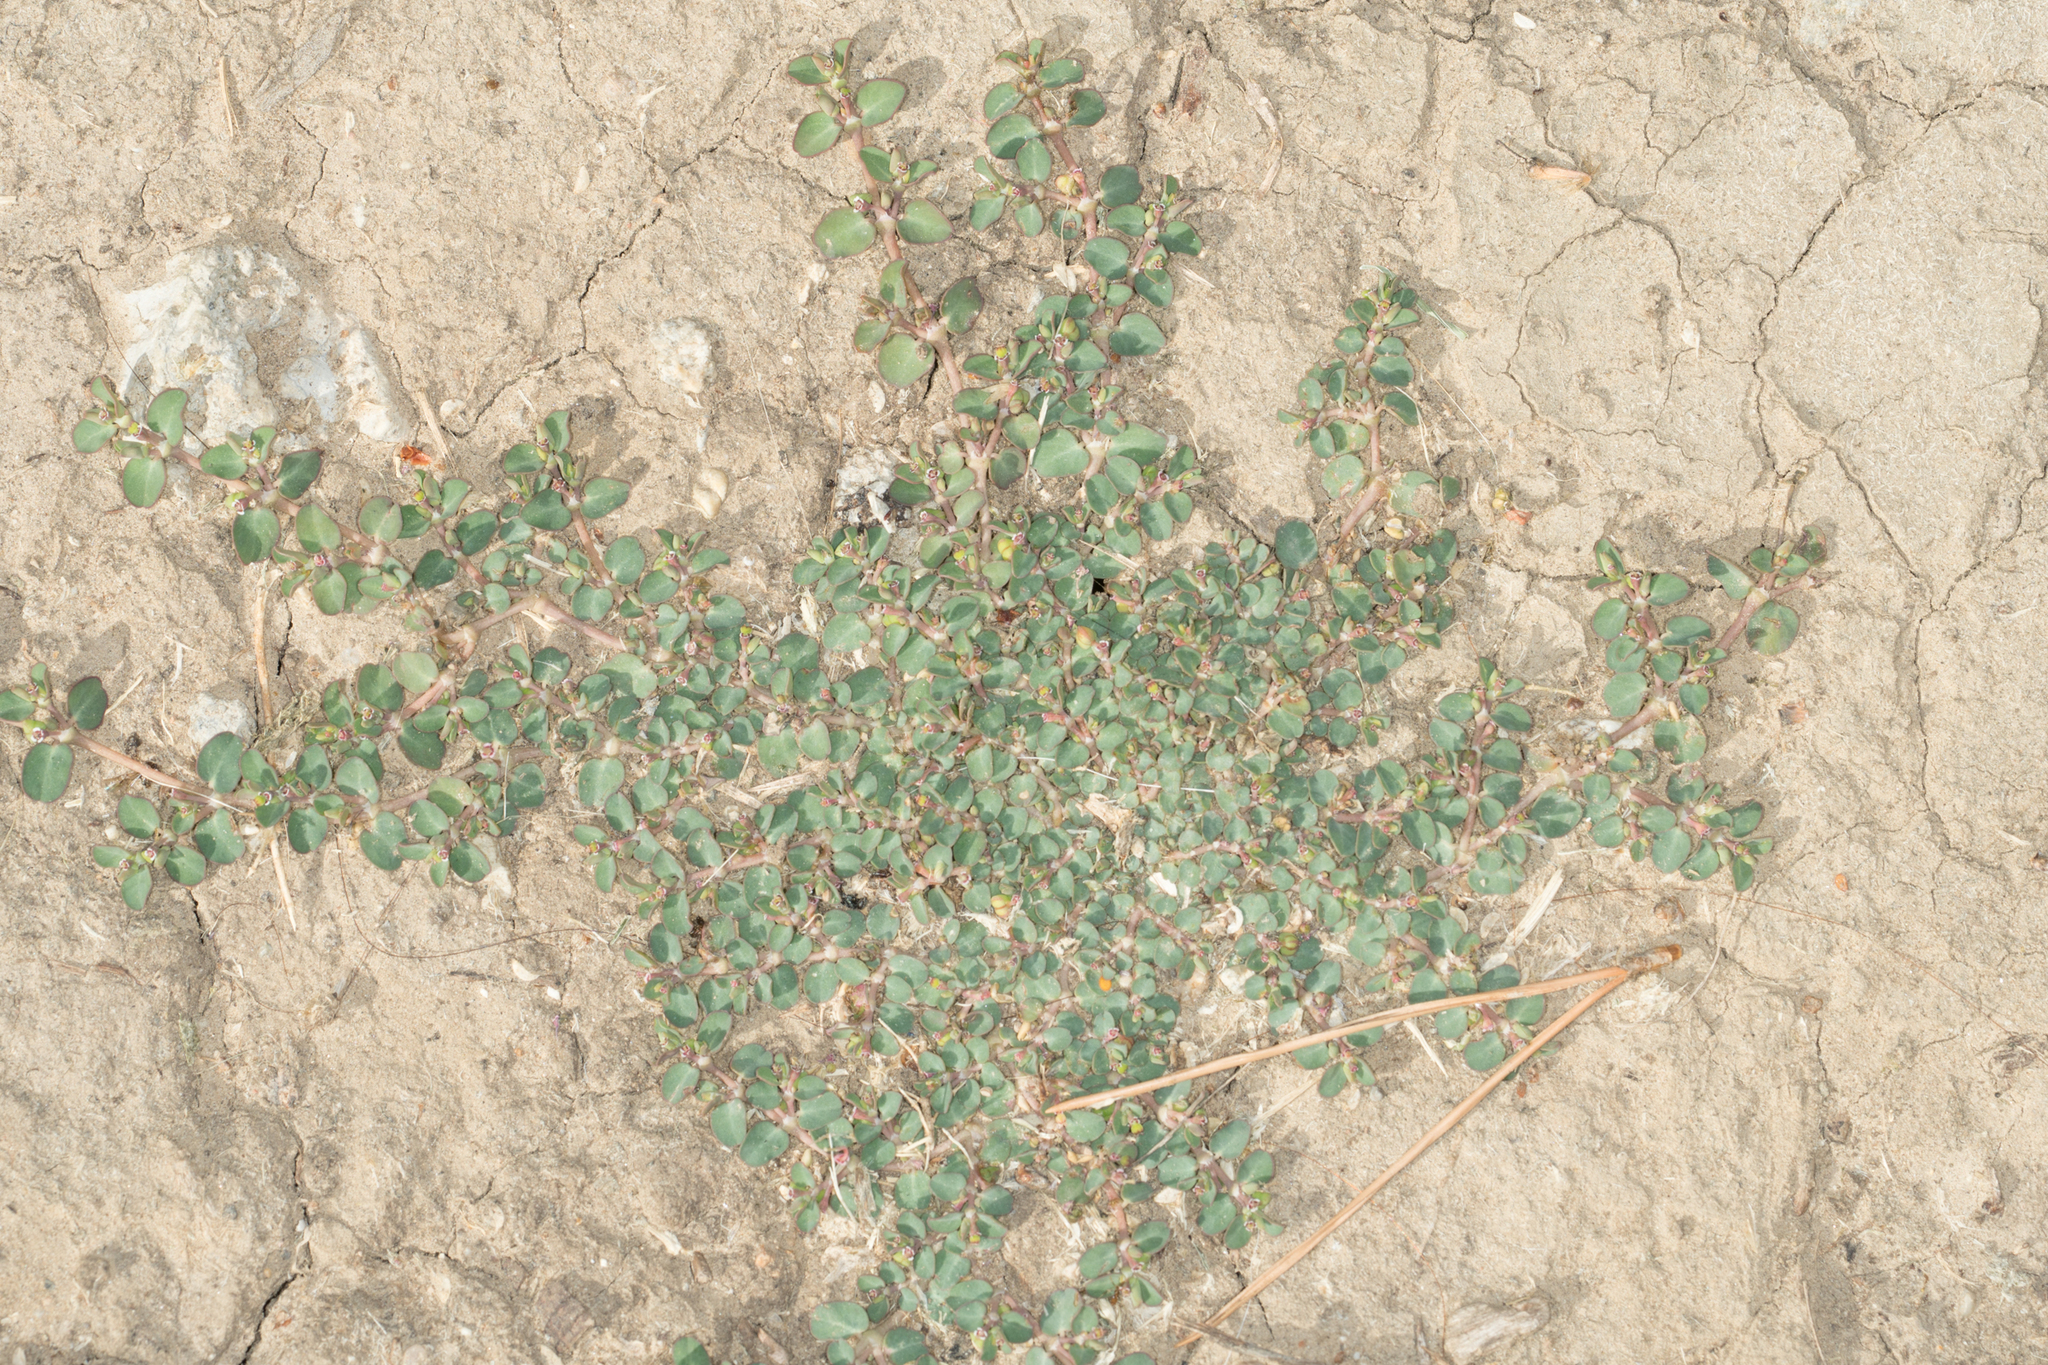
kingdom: Plantae
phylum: Tracheophyta
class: Magnoliopsida
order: Malpighiales
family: Euphorbiaceae
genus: Euphorbia
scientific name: Euphorbia serpens
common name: Matted sandmat
